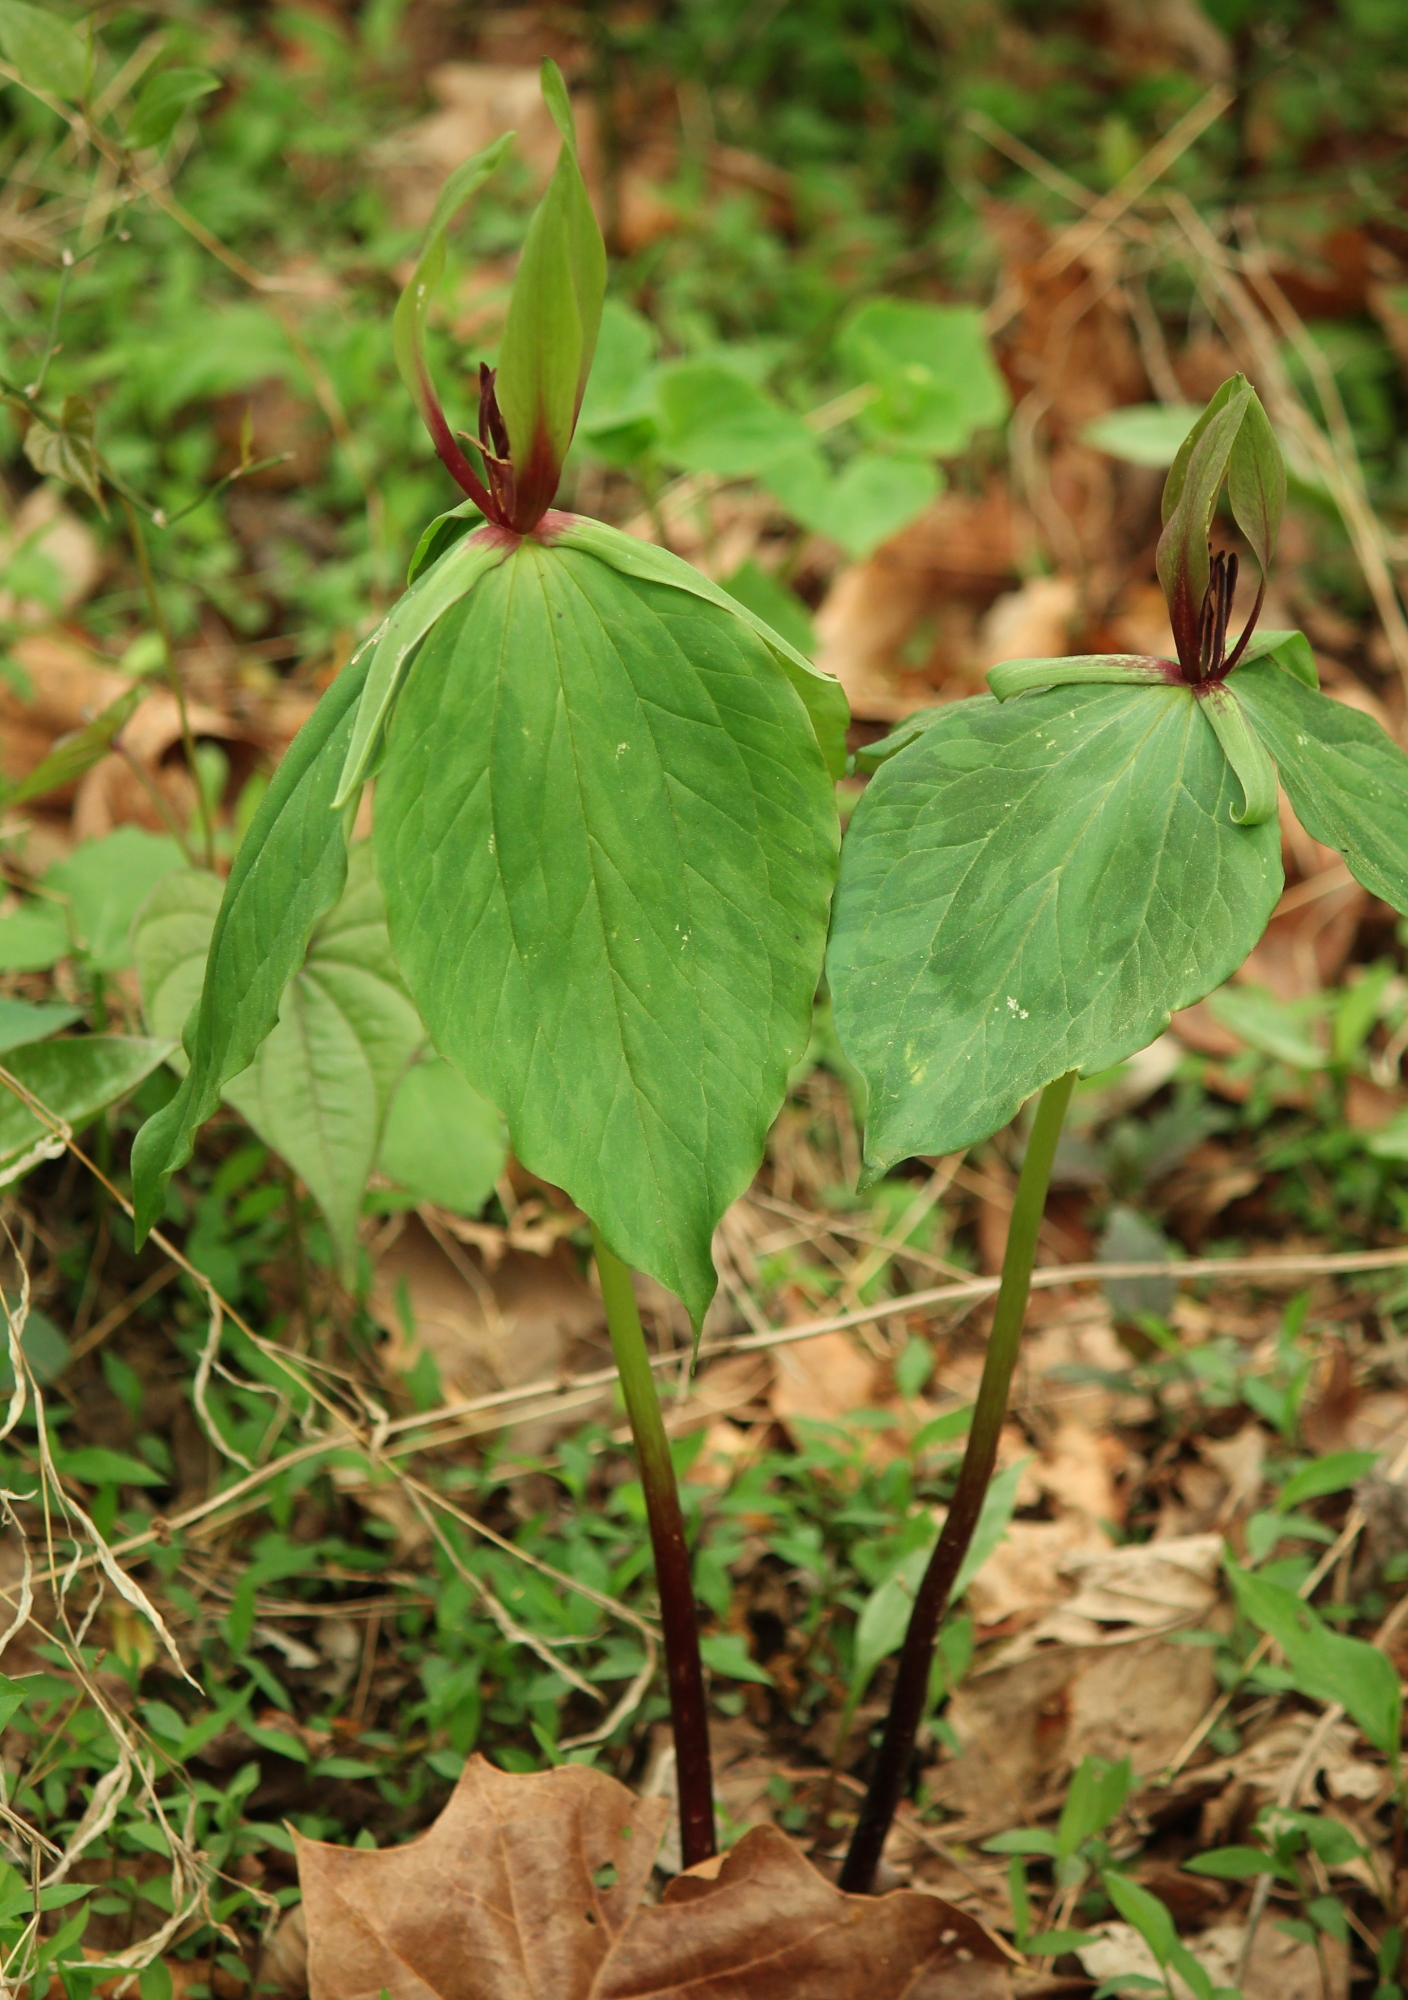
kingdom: Plantae
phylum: Tracheophyta
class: Liliopsida
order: Liliales
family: Melanthiaceae
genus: Trillium
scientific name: Trillium viridescens
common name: Ozark green trillium
